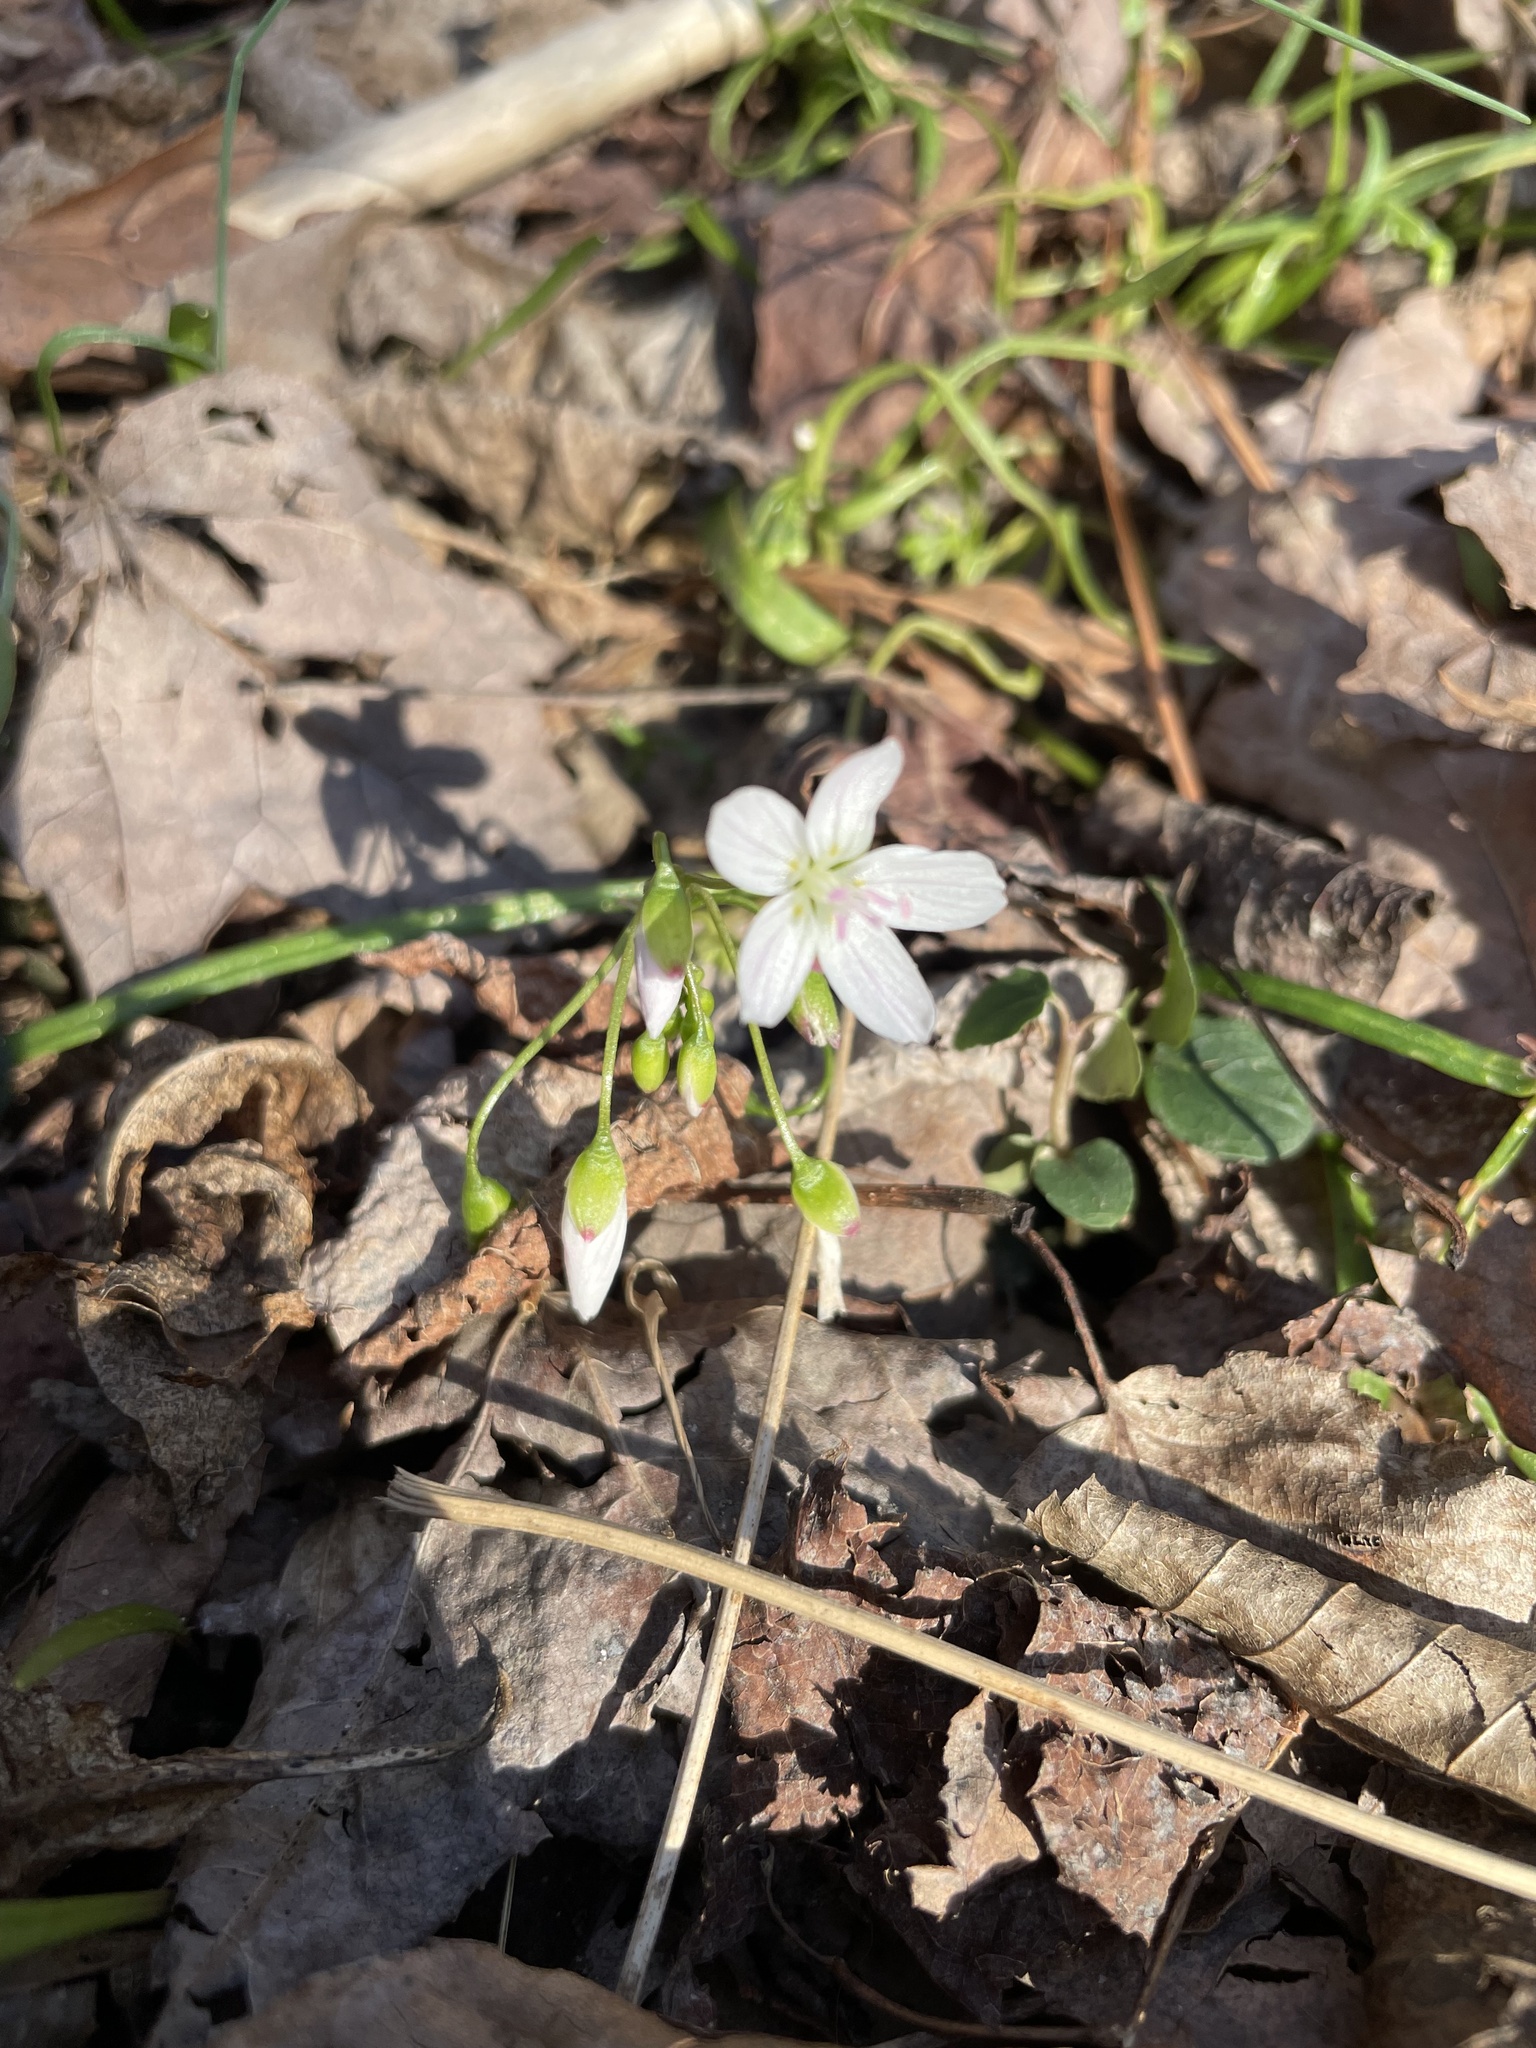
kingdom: Plantae
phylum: Tracheophyta
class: Magnoliopsida
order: Caryophyllales
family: Montiaceae
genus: Claytonia
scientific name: Claytonia virginica
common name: Virginia springbeauty
